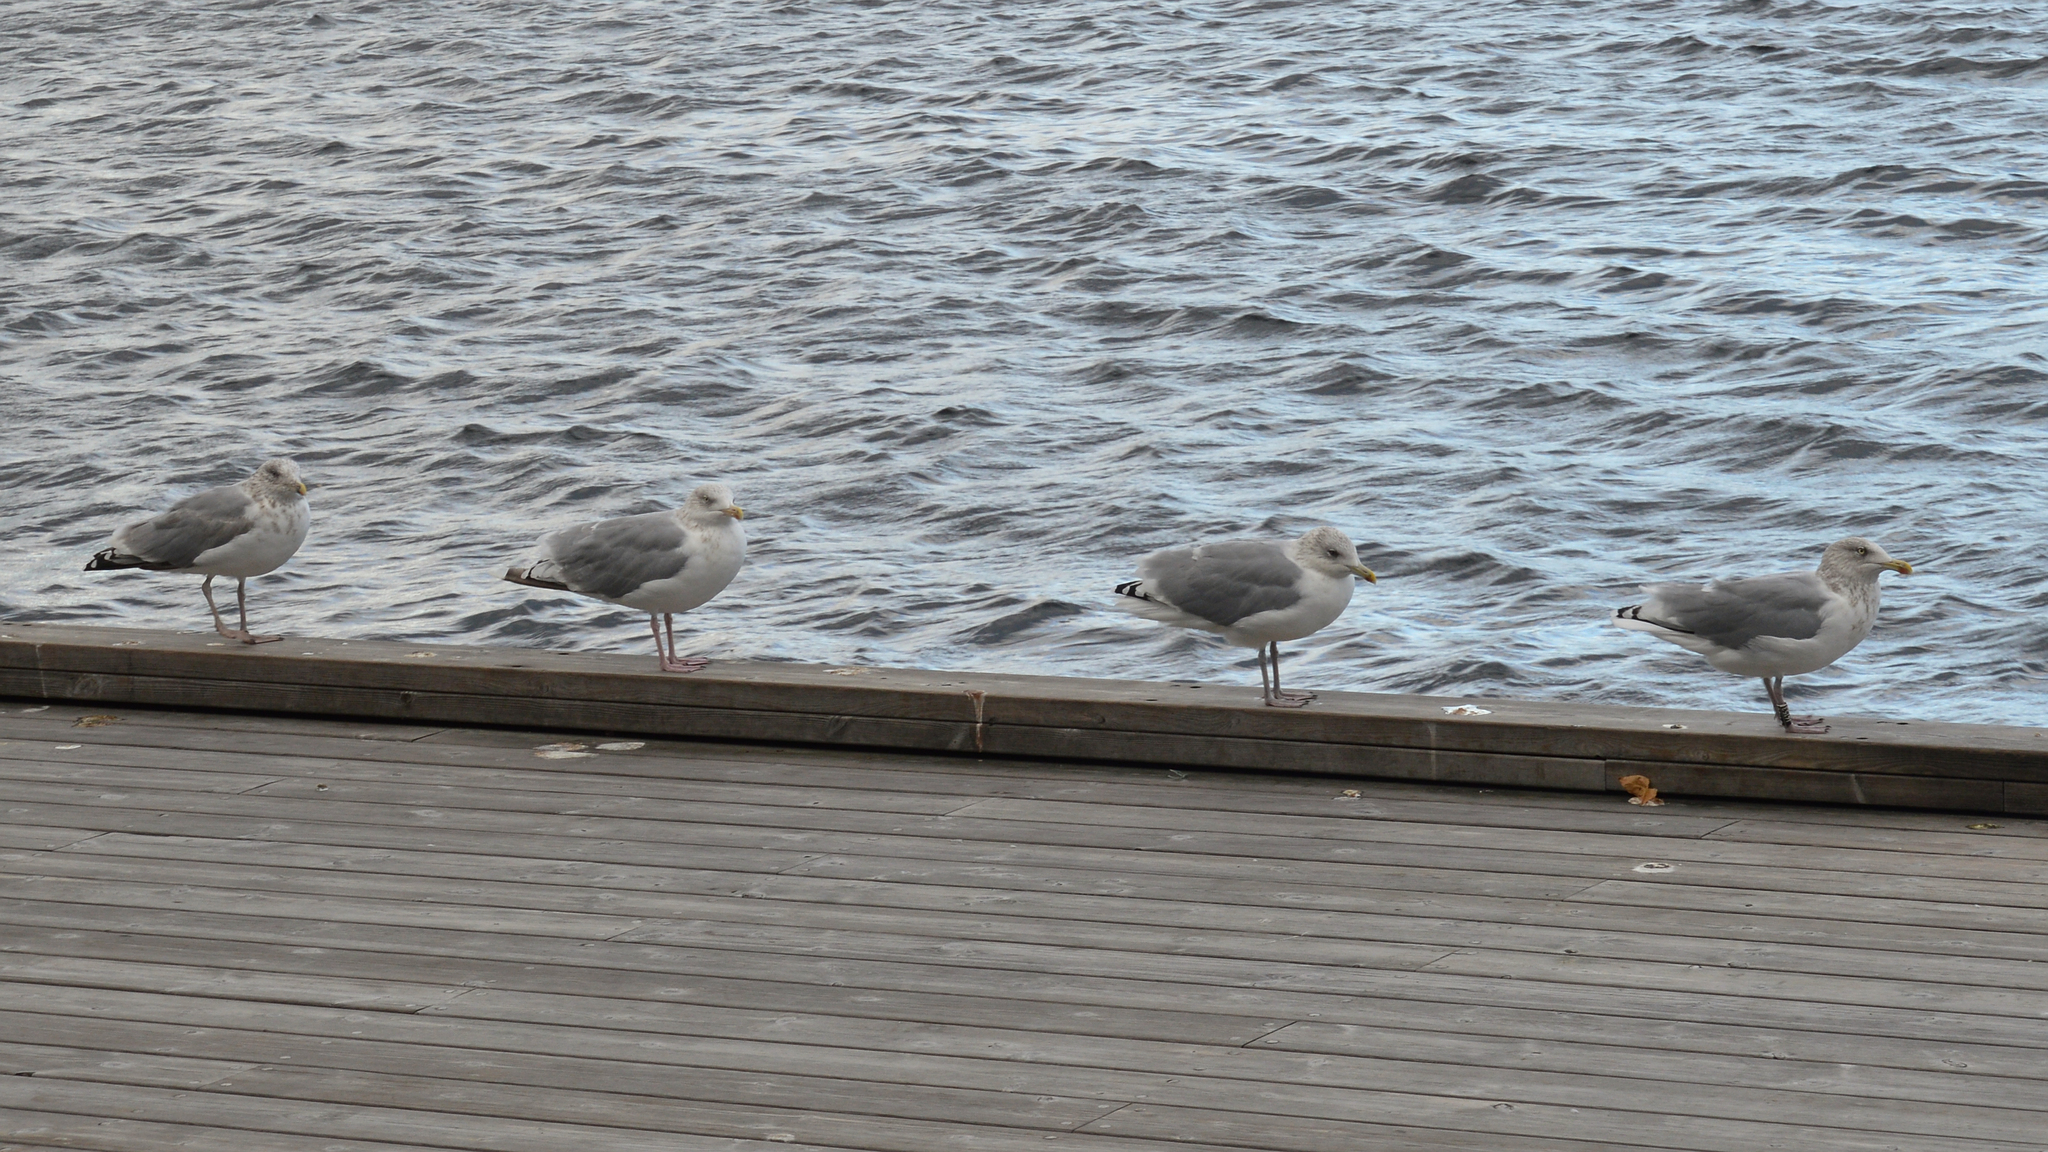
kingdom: Animalia
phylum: Chordata
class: Aves
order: Charadriiformes
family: Laridae
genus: Larus
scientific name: Larus argentatus
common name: Herring gull
